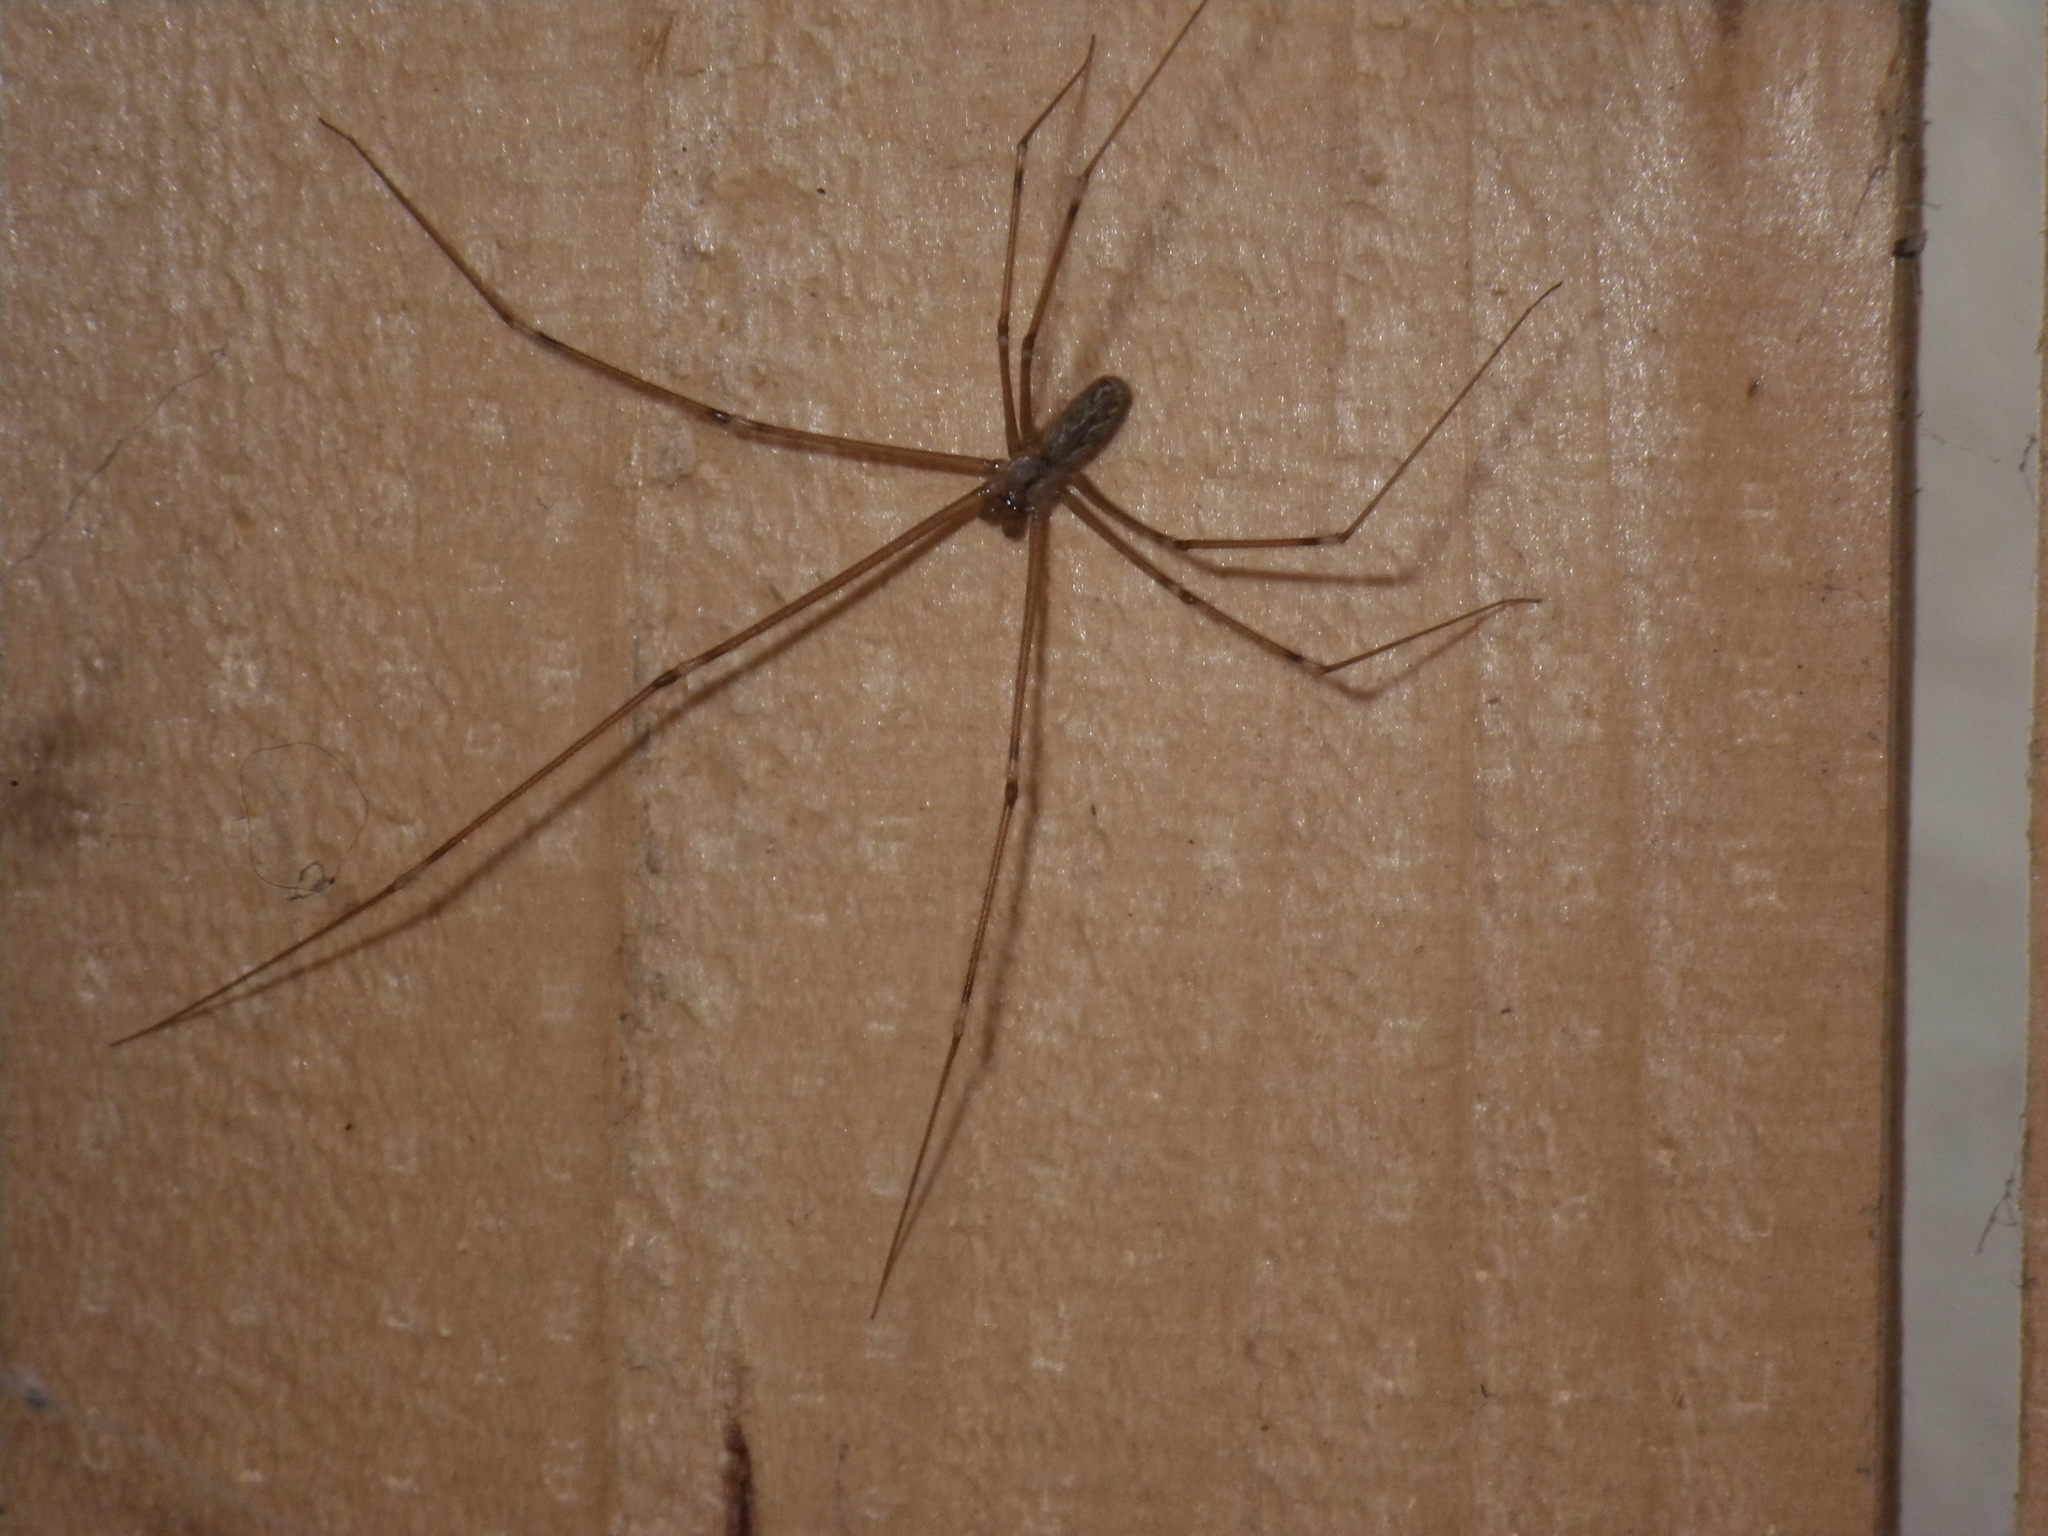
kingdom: Animalia
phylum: Arthropoda
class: Arachnida
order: Araneae
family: Pholcidae
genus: Holocnemus
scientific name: Holocnemus pluchei
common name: Marbled cellar spider
